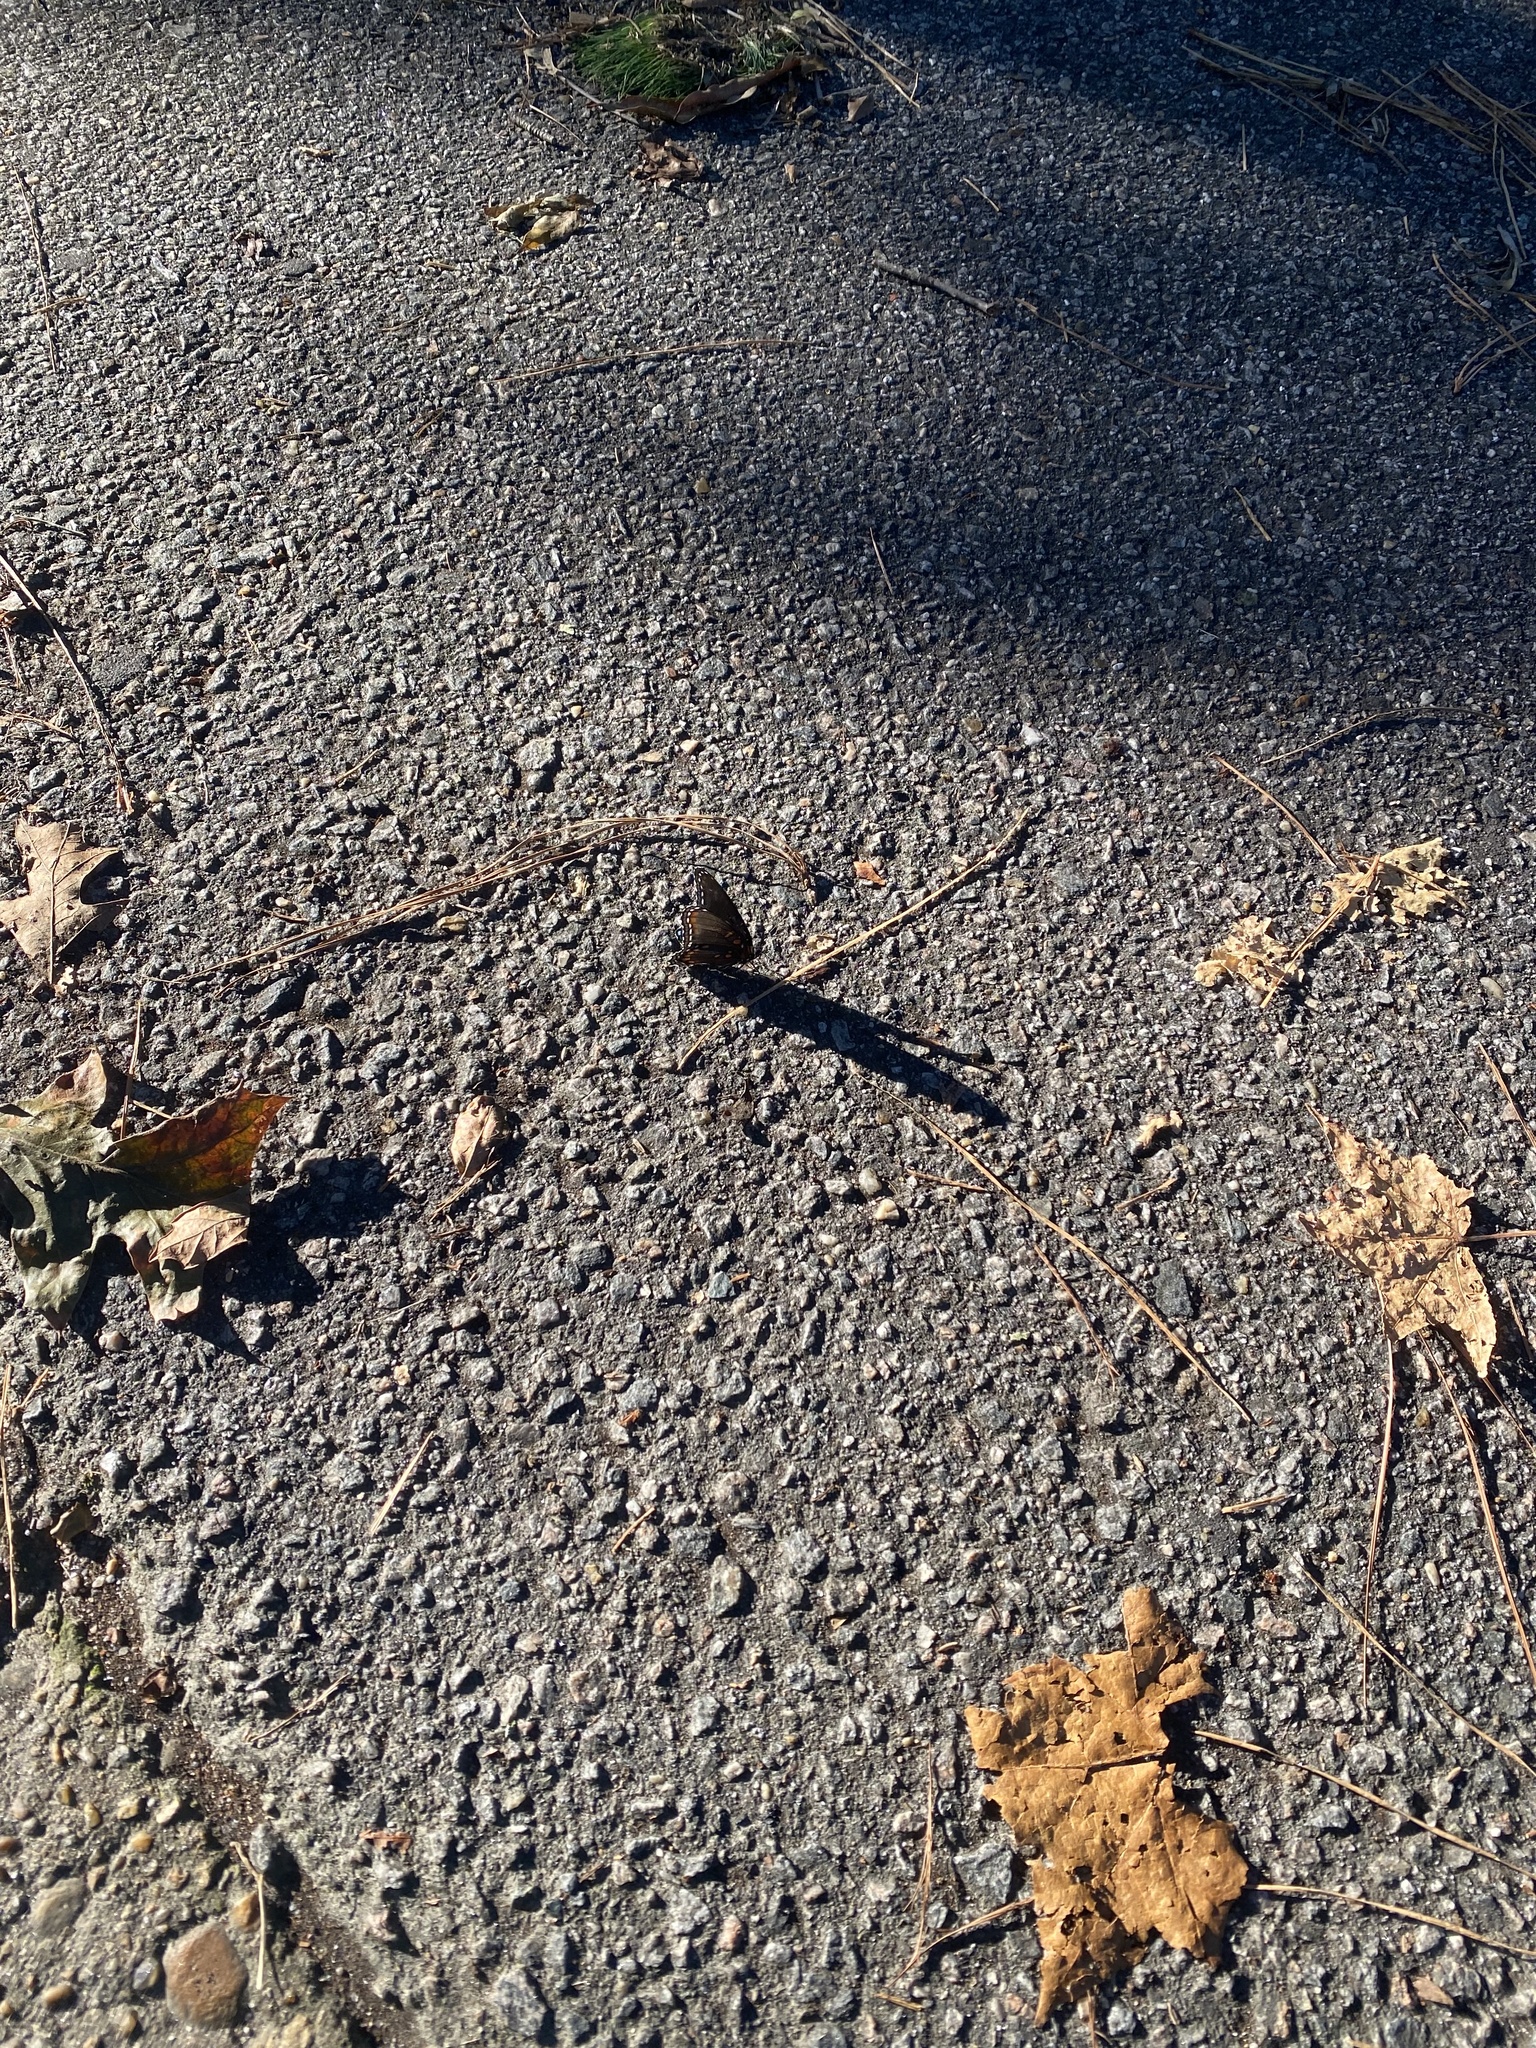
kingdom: Animalia
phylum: Arthropoda
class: Insecta
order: Lepidoptera
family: Nymphalidae
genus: Limenitis
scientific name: Limenitis astyanax
